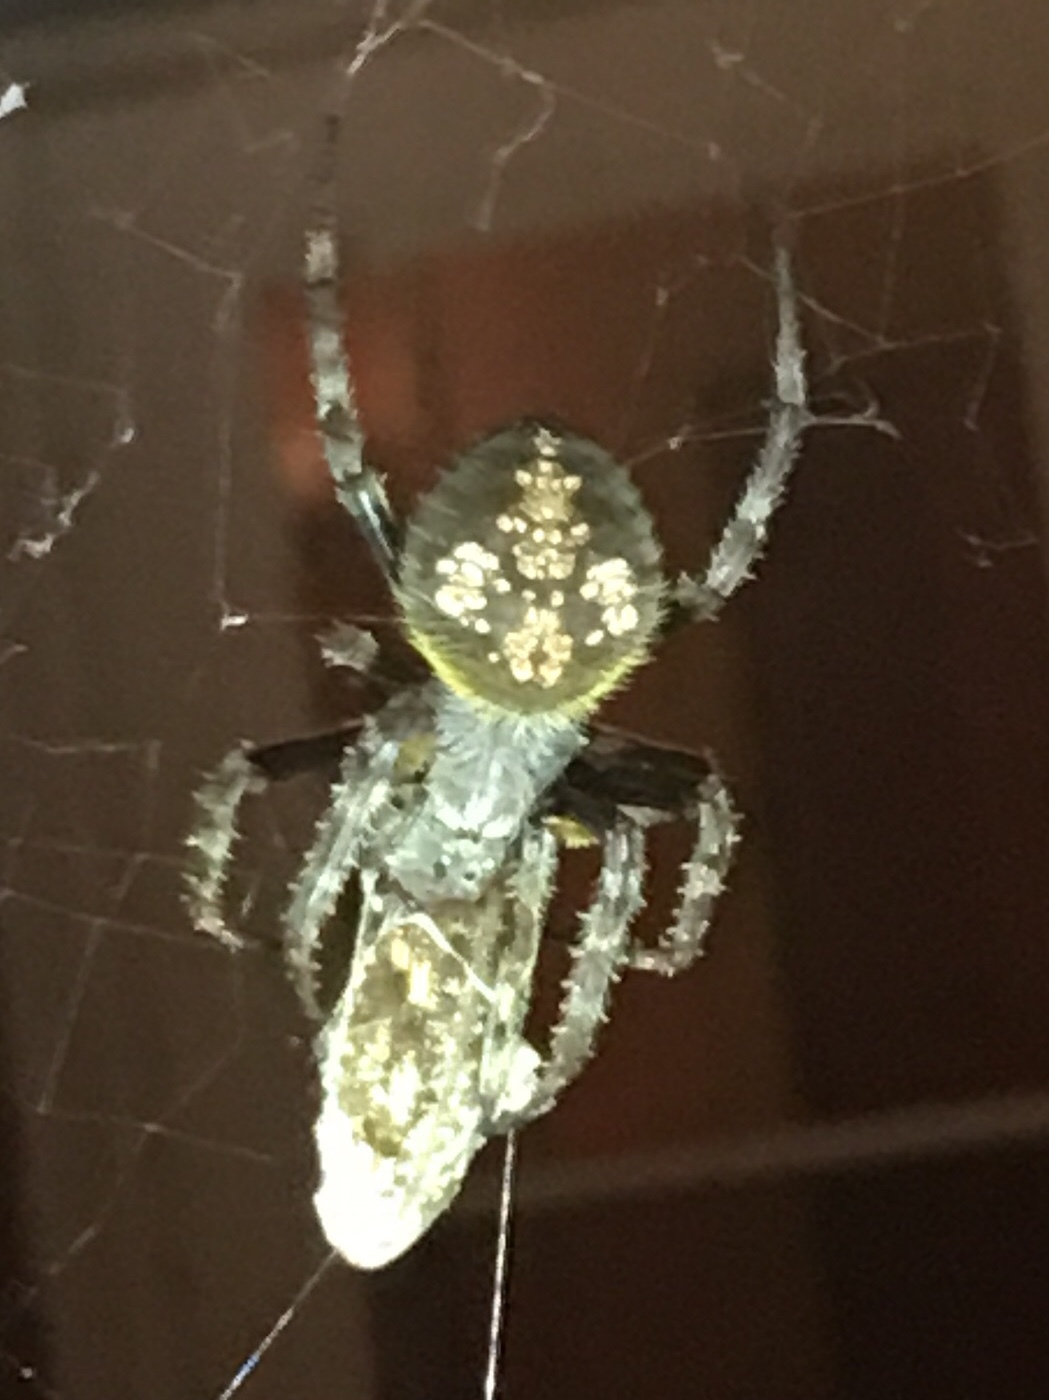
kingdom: Animalia
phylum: Arthropoda
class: Arachnida
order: Araneae
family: Araneidae
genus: Eriophora
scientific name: Eriophora ravilla
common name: Orb weavers
